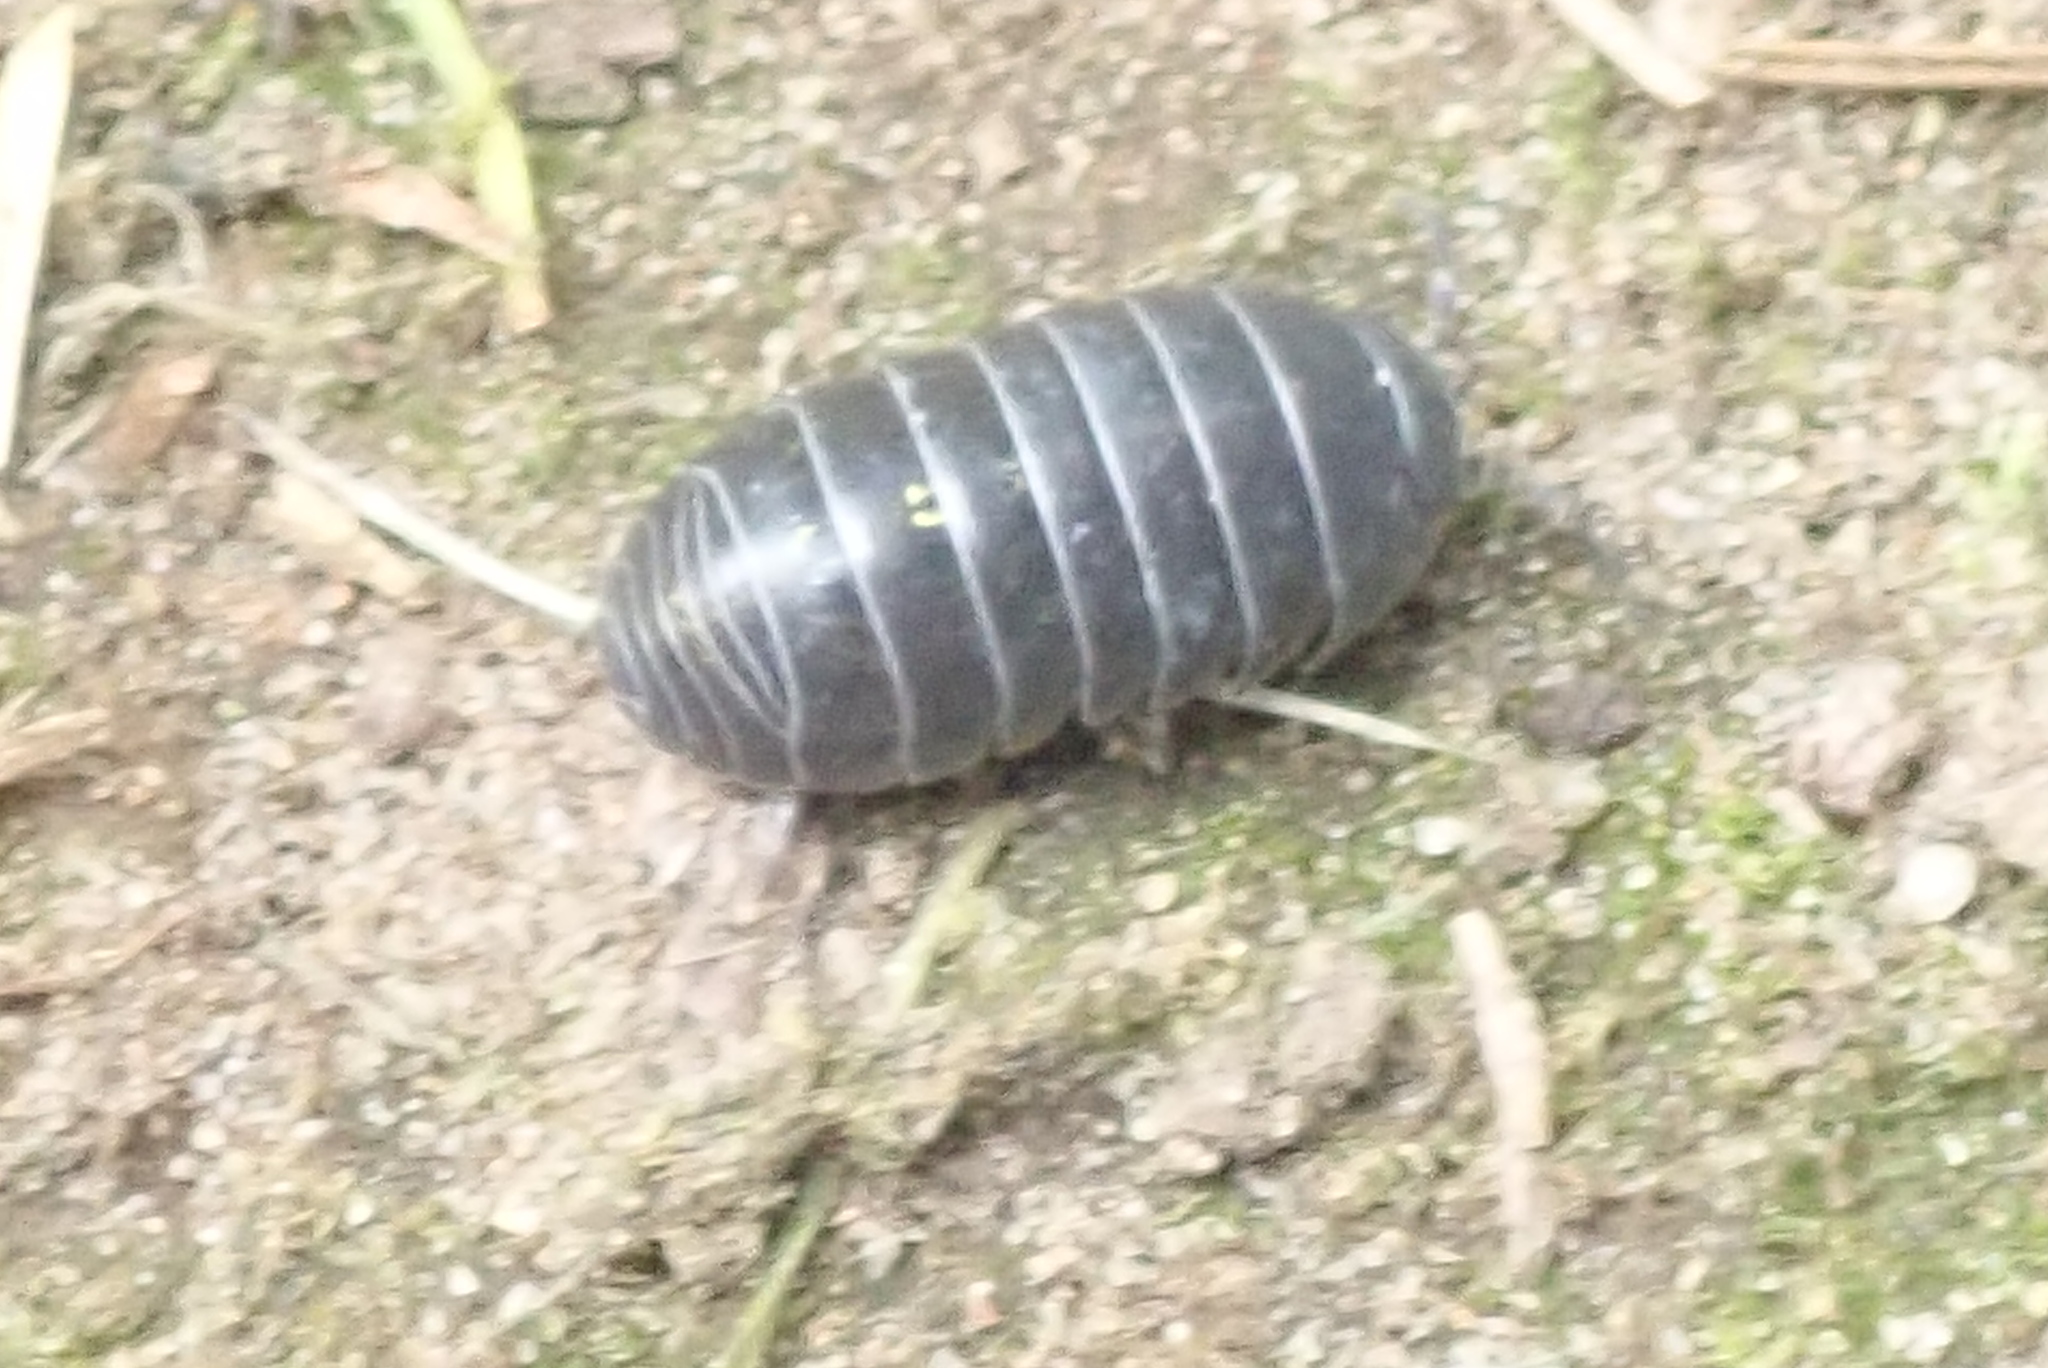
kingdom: Animalia
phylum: Arthropoda
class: Malacostraca
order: Isopoda
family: Armadillidiidae
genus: Armadillidium
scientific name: Armadillidium vulgare
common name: Common pill woodlouse
